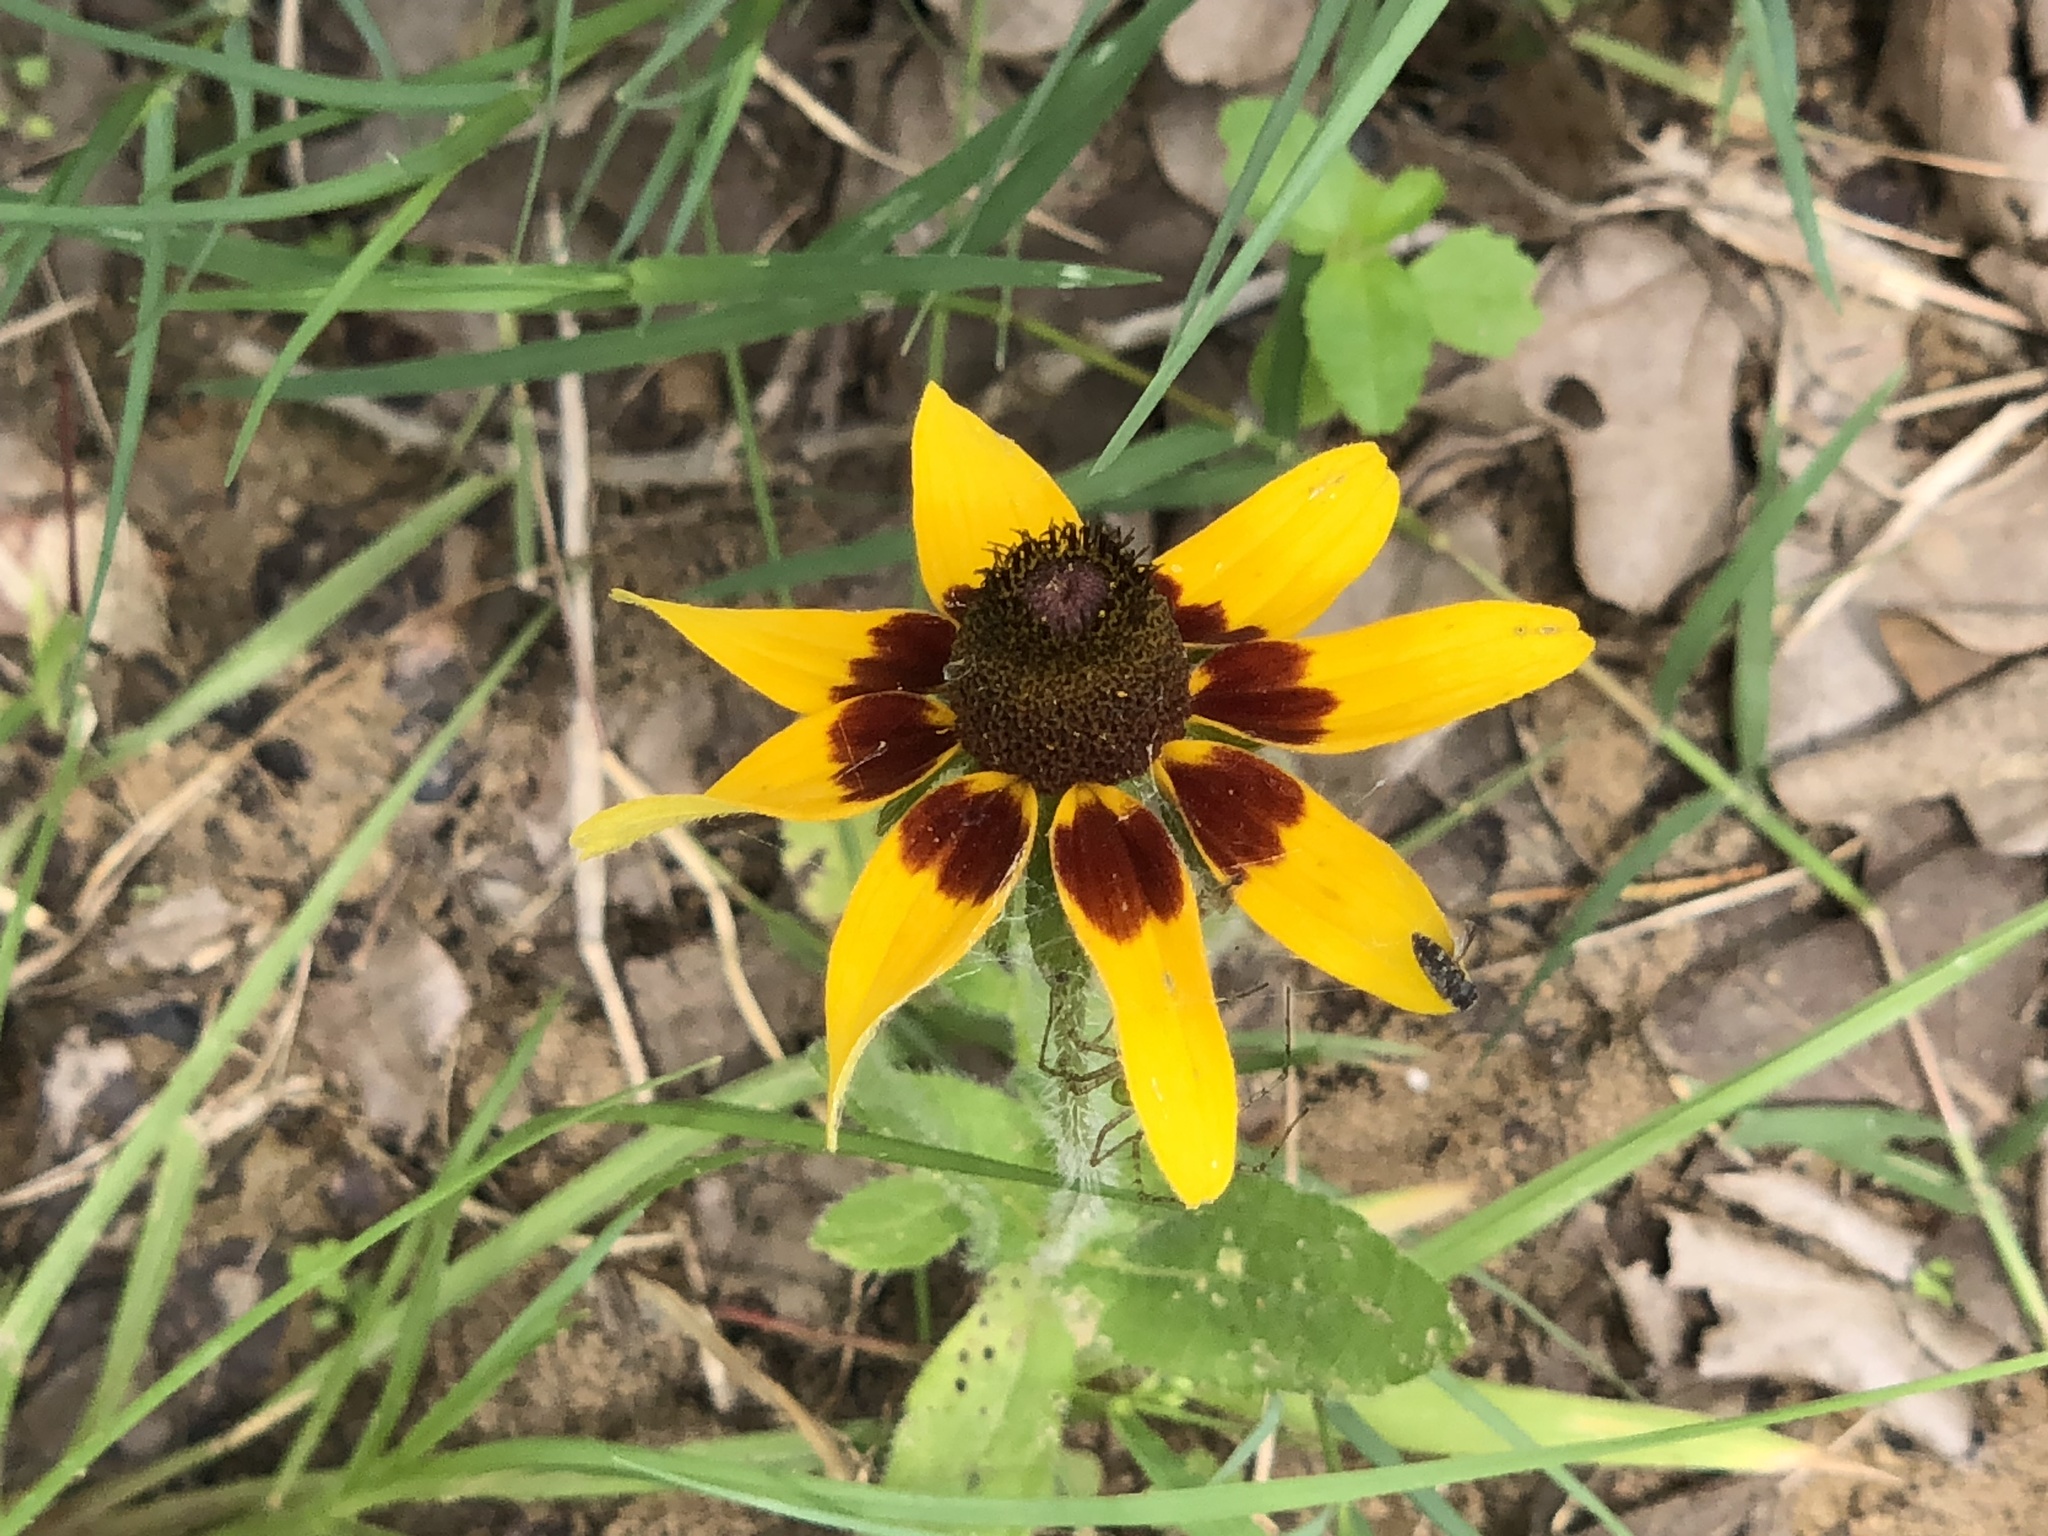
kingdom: Plantae
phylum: Tracheophyta
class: Magnoliopsida
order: Asterales
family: Asteraceae
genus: Rudbeckia
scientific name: Rudbeckia hirta
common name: Black-eyed-susan
